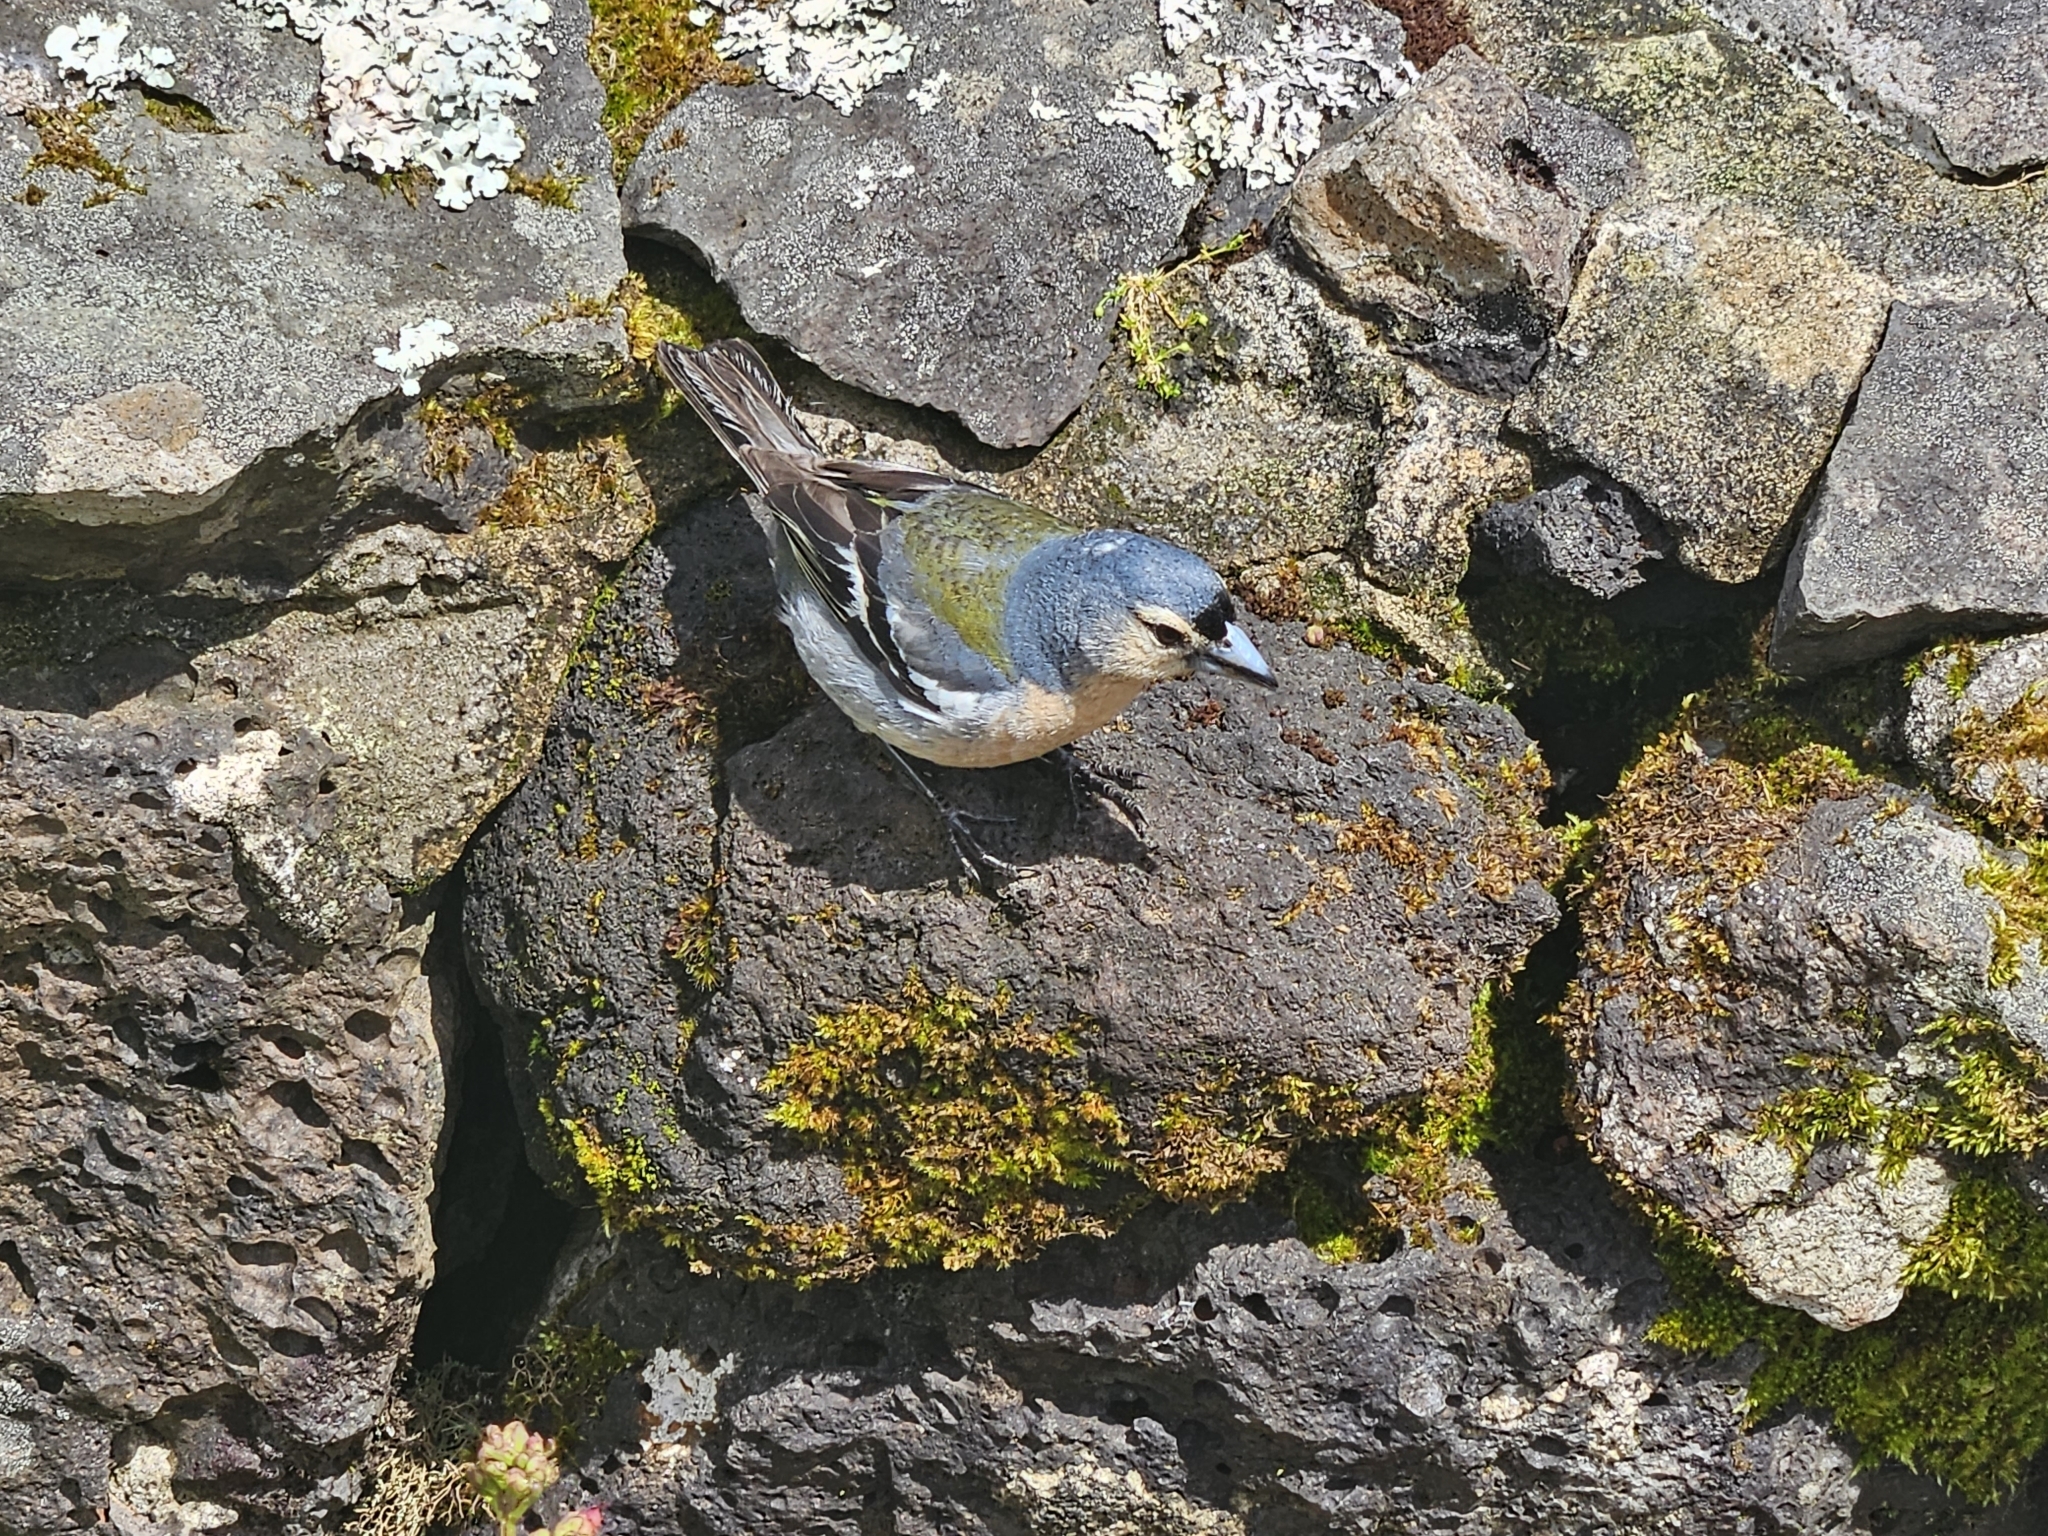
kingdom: Animalia
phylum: Chordata
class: Aves
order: Passeriformes
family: Fringillidae
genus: Fringilla
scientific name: Fringilla moreletti
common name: Azores chaffinch
